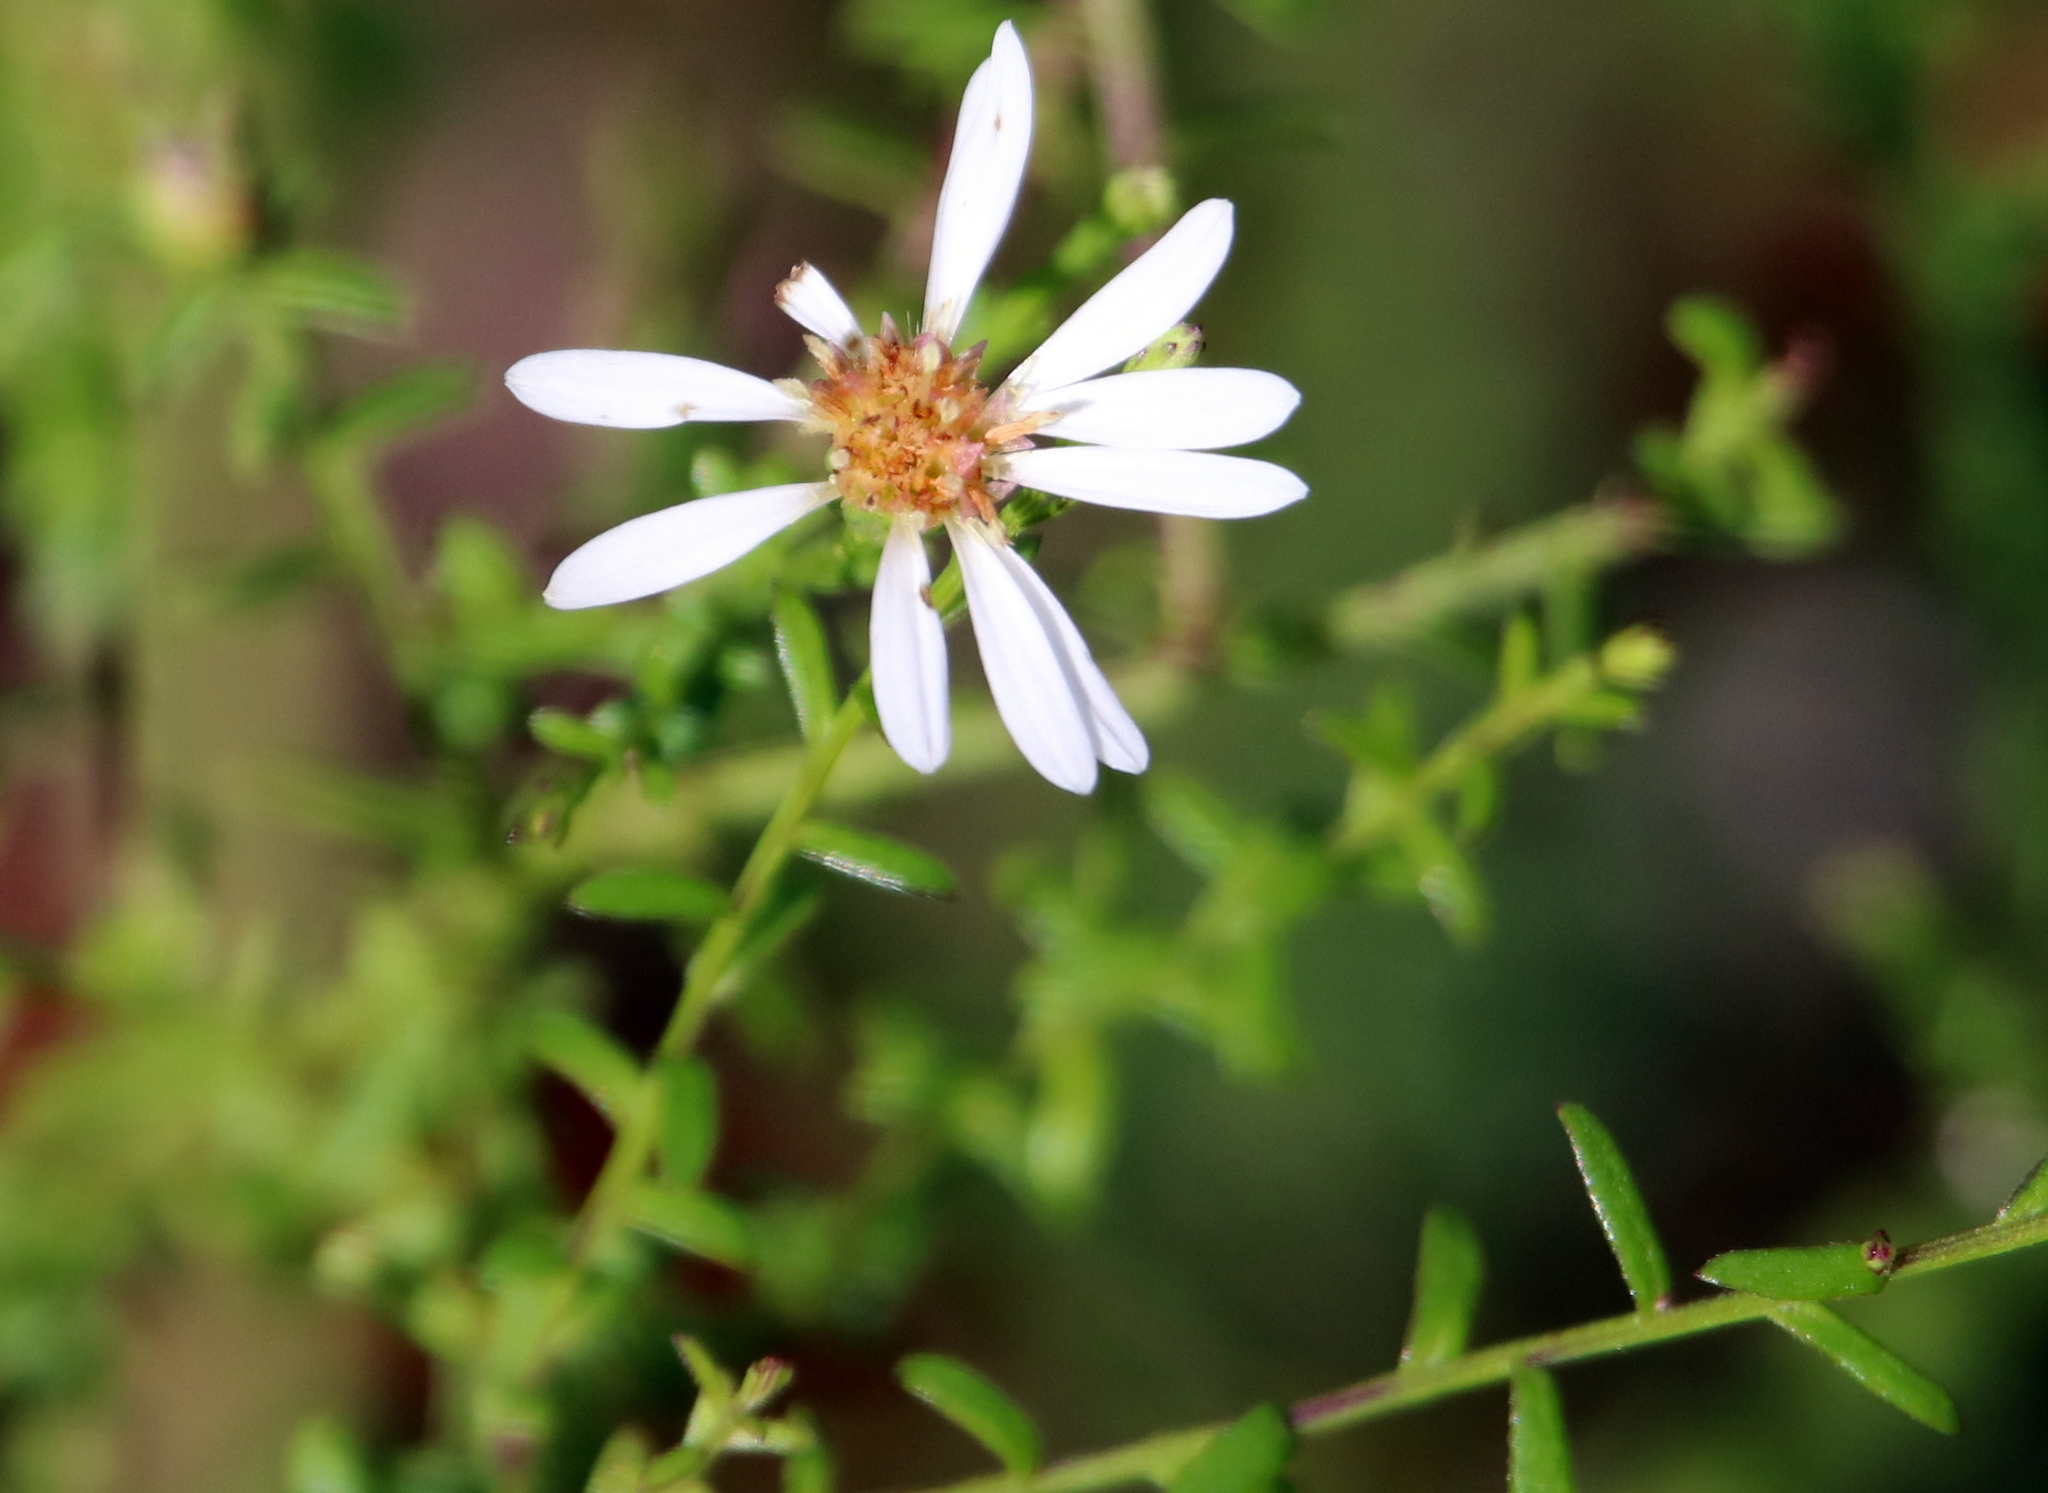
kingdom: Plantae
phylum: Tracheophyta
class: Magnoliopsida
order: Asterales
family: Asteraceae
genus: Symphyotrichum
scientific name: Symphyotrichum dumosum
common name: Bushy aster
